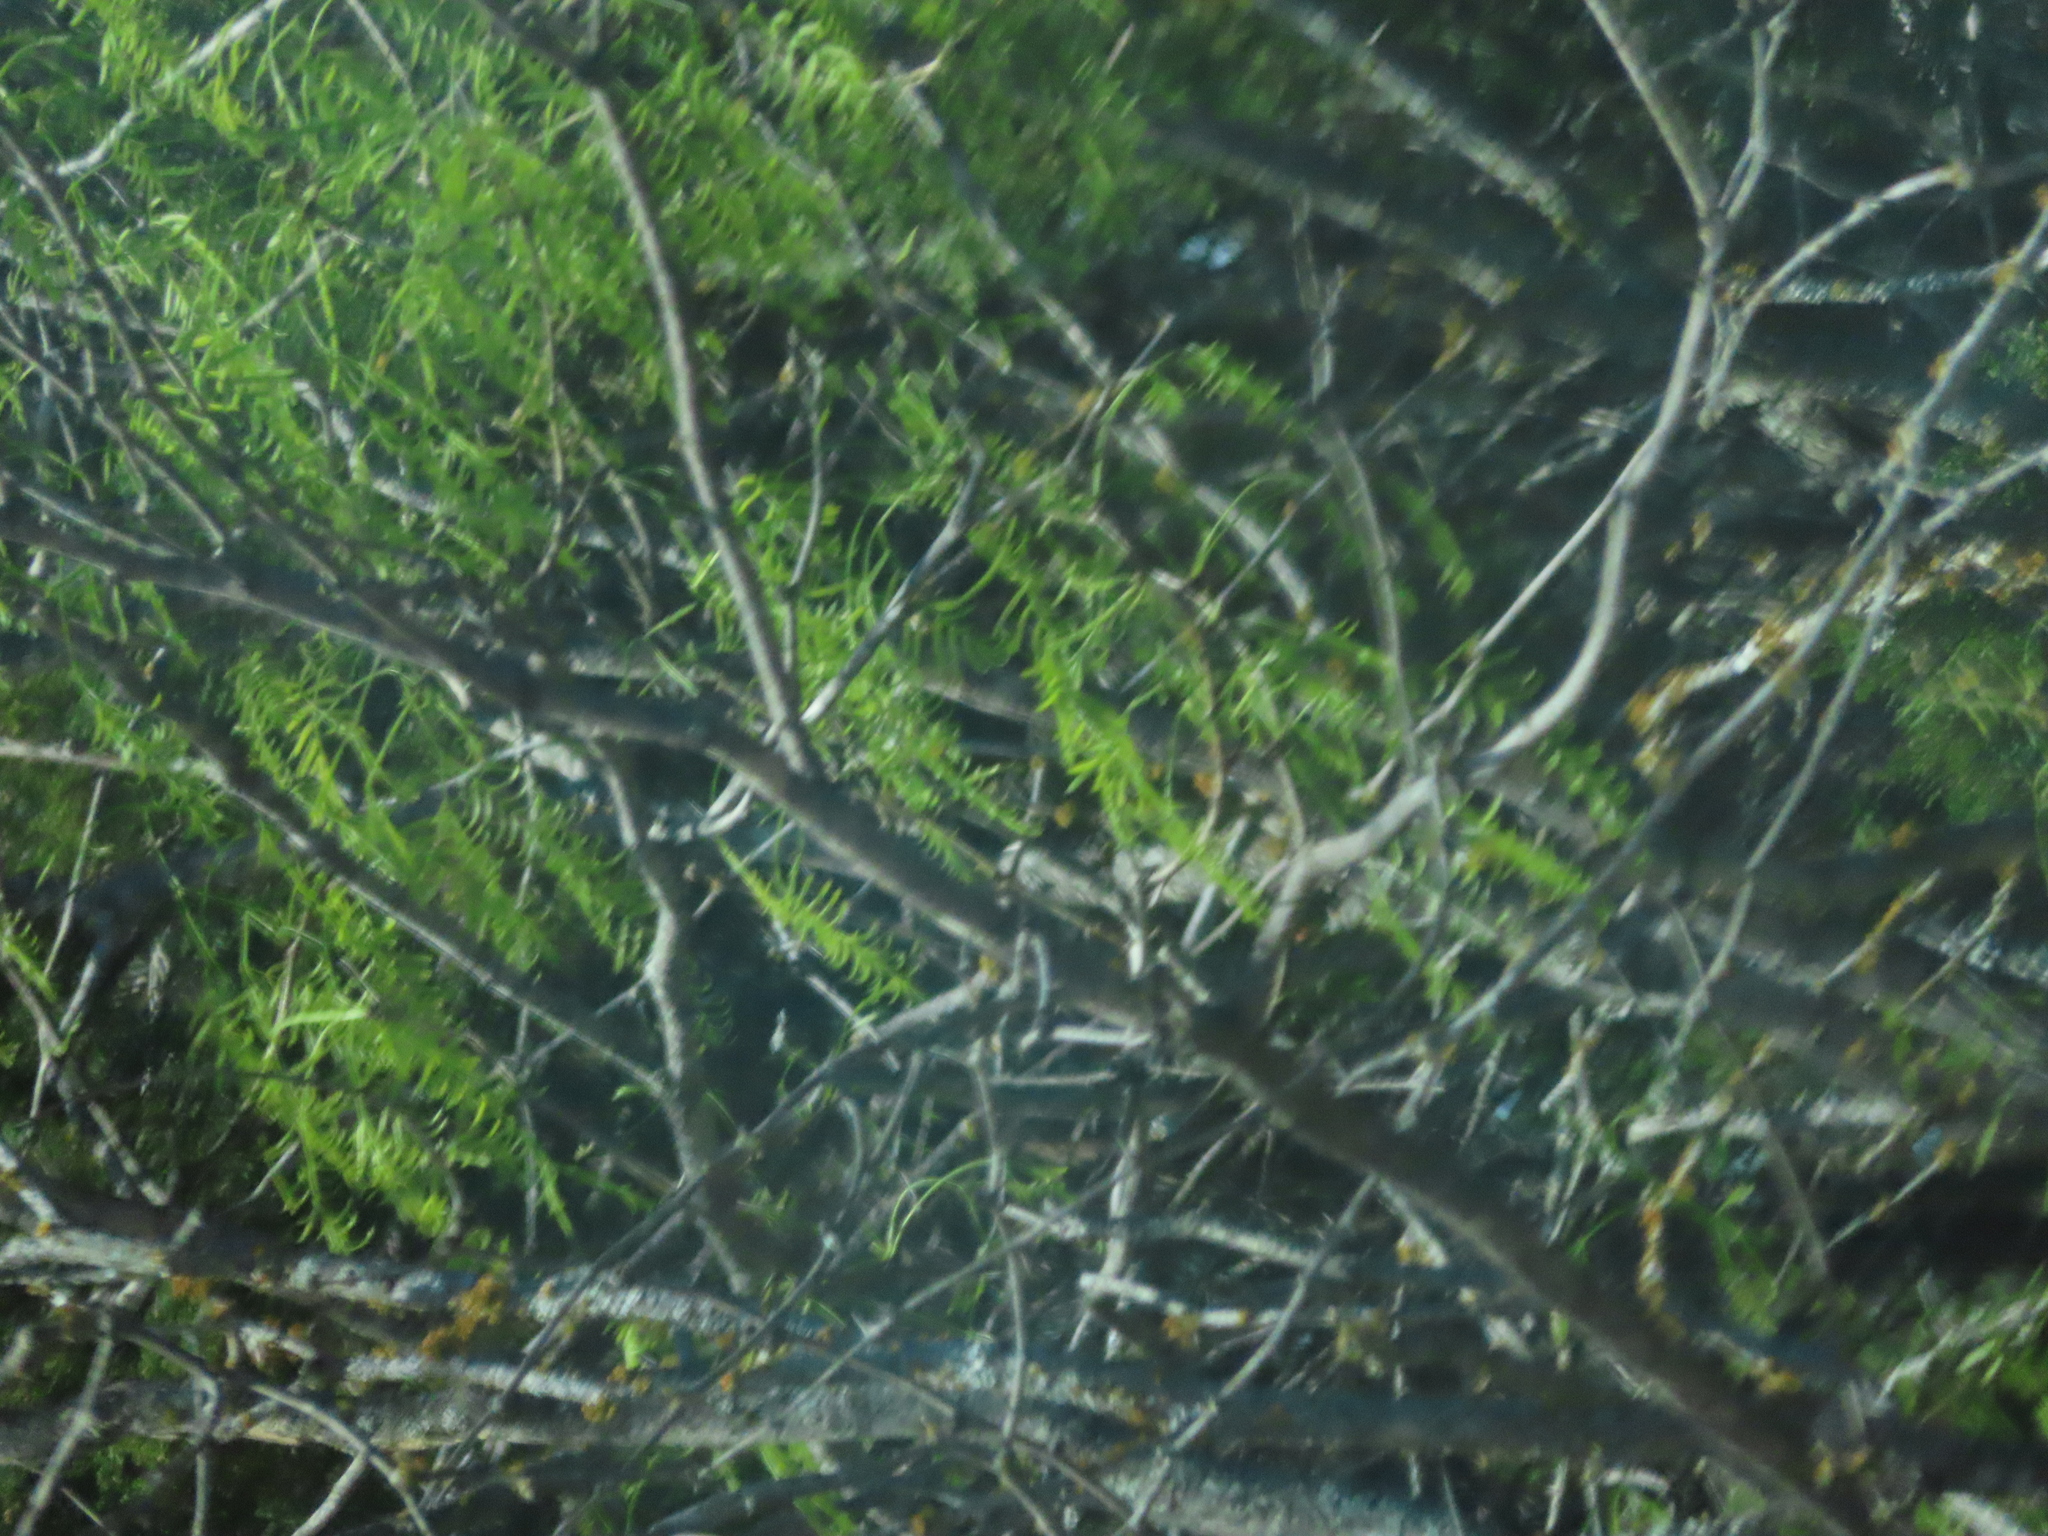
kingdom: Plantae
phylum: Tracheophyta
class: Magnoliopsida
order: Fabales
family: Fabaceae
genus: Prosopis
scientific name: Prosopis glandulosa
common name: Honey mesquite
